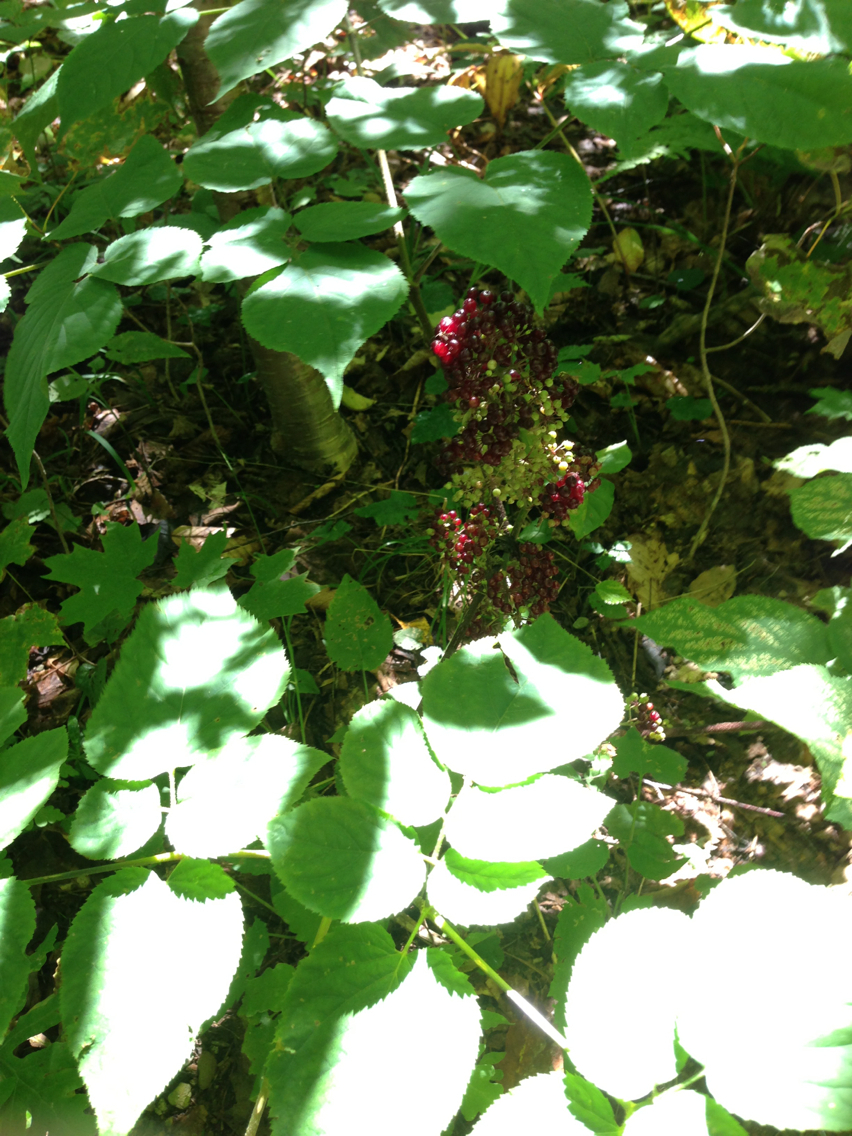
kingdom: Plantae
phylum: Tracheophyta
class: Magnoliopsida
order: Apiales
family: Araliaceae
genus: Aralia
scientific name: Aralia racemosa
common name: American-spikenard
